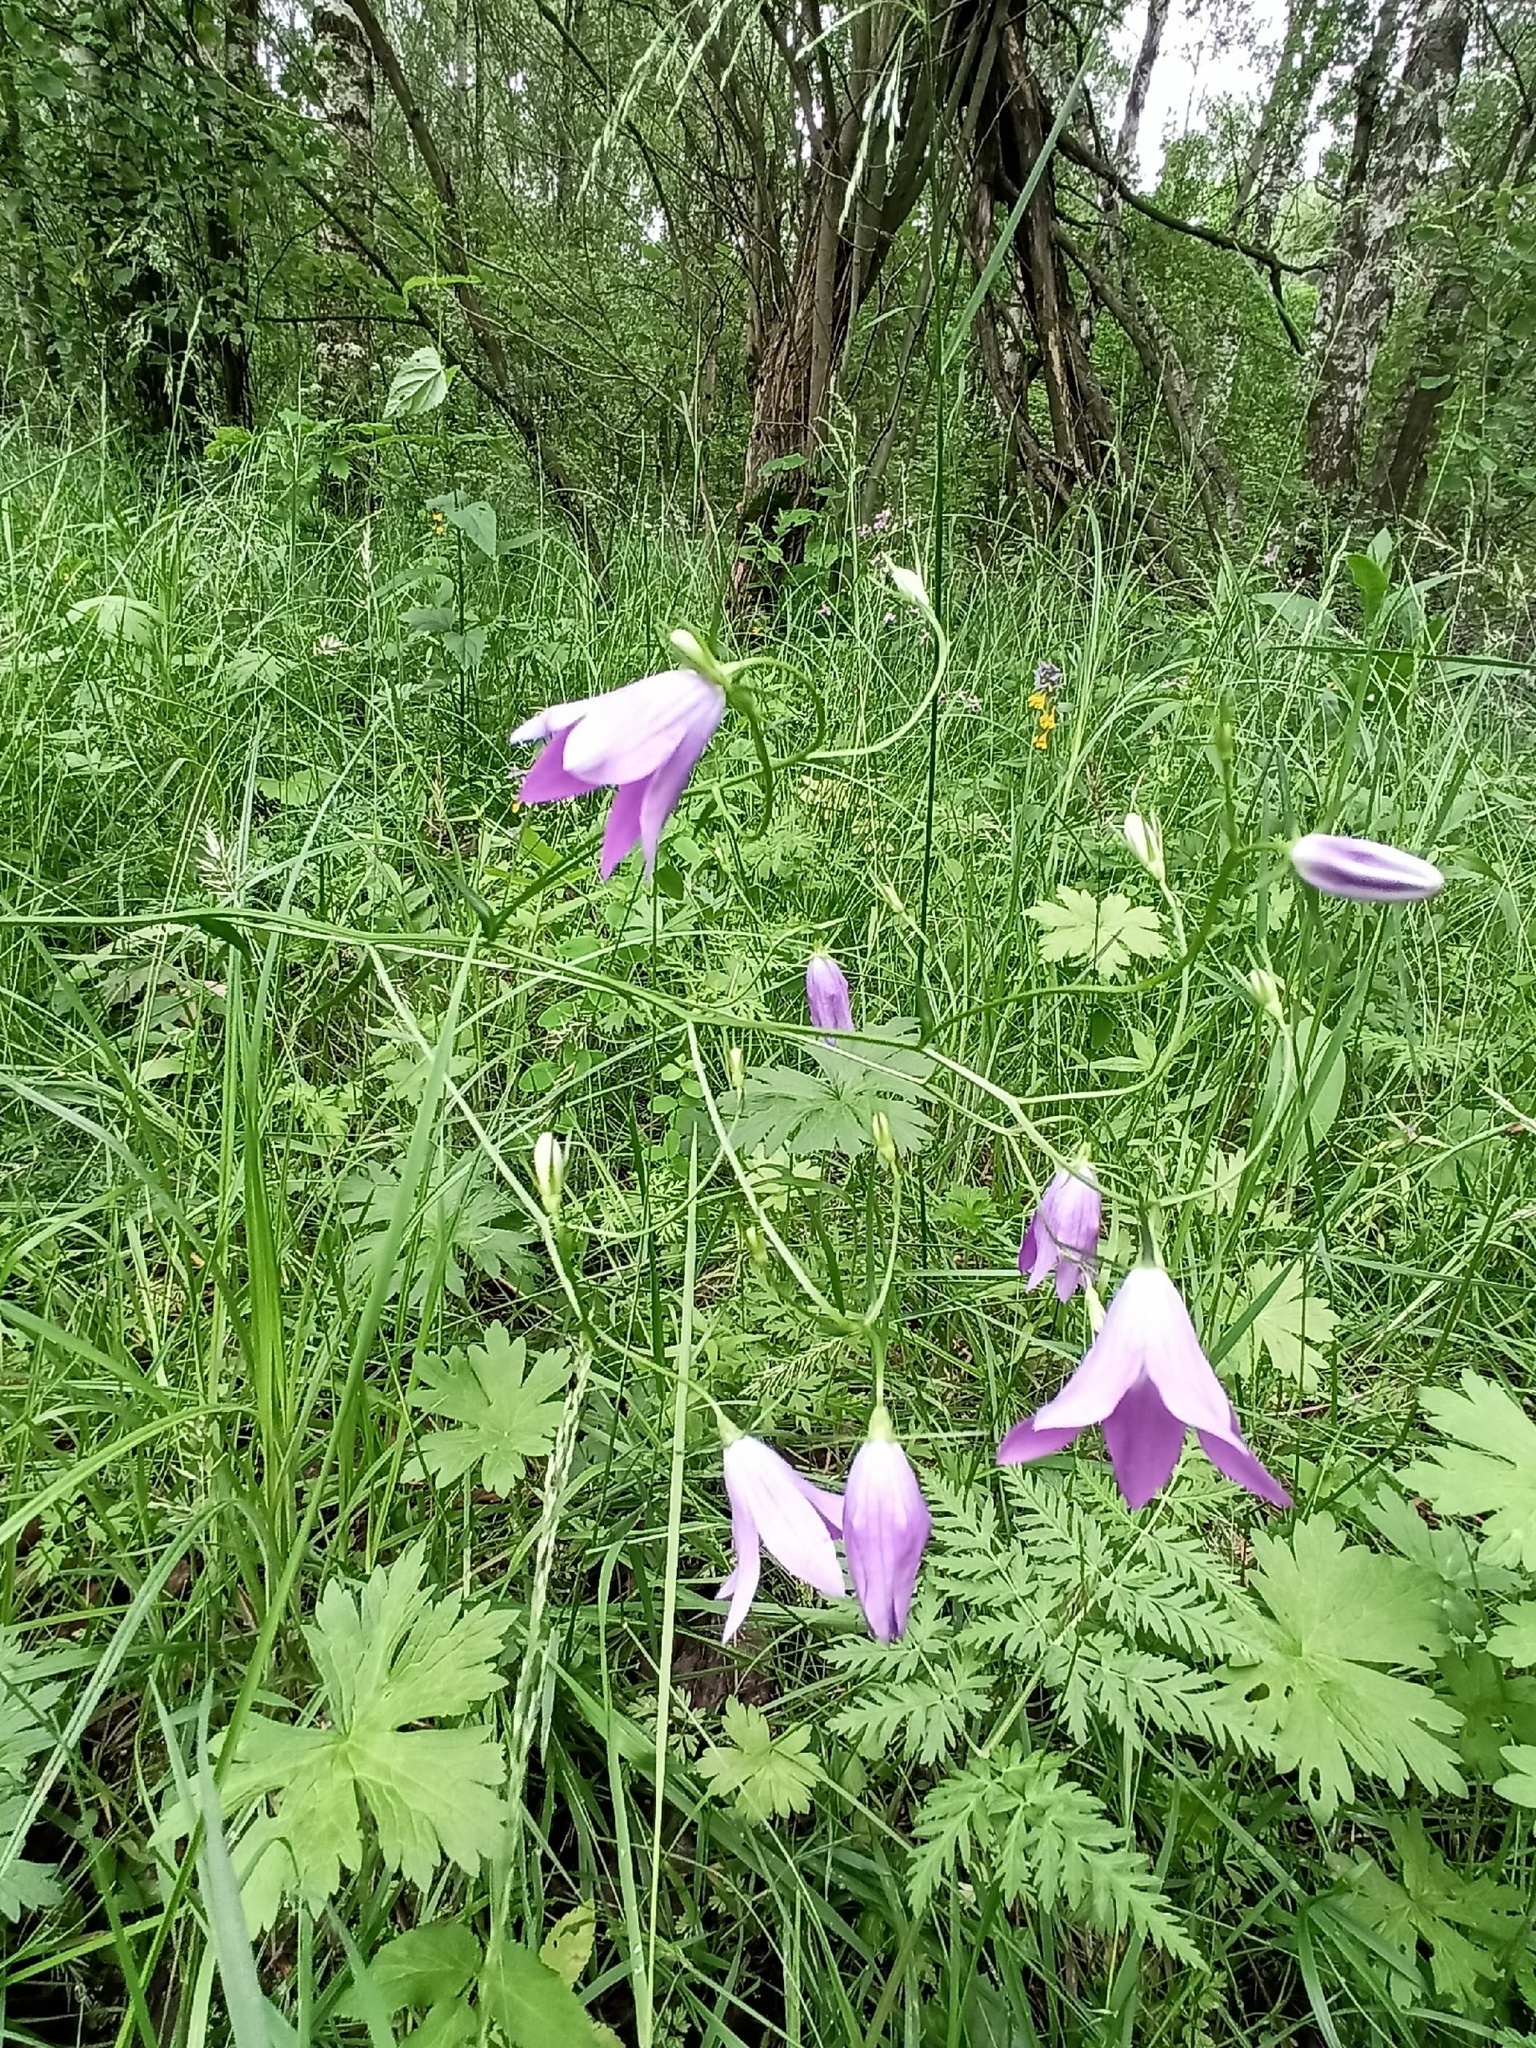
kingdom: Plantae
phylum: Tracheophyta
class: Magnoliopsida
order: Asterales
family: Campanulaceae
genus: Campanula
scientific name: Campanula patula
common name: Spreading bellflower
